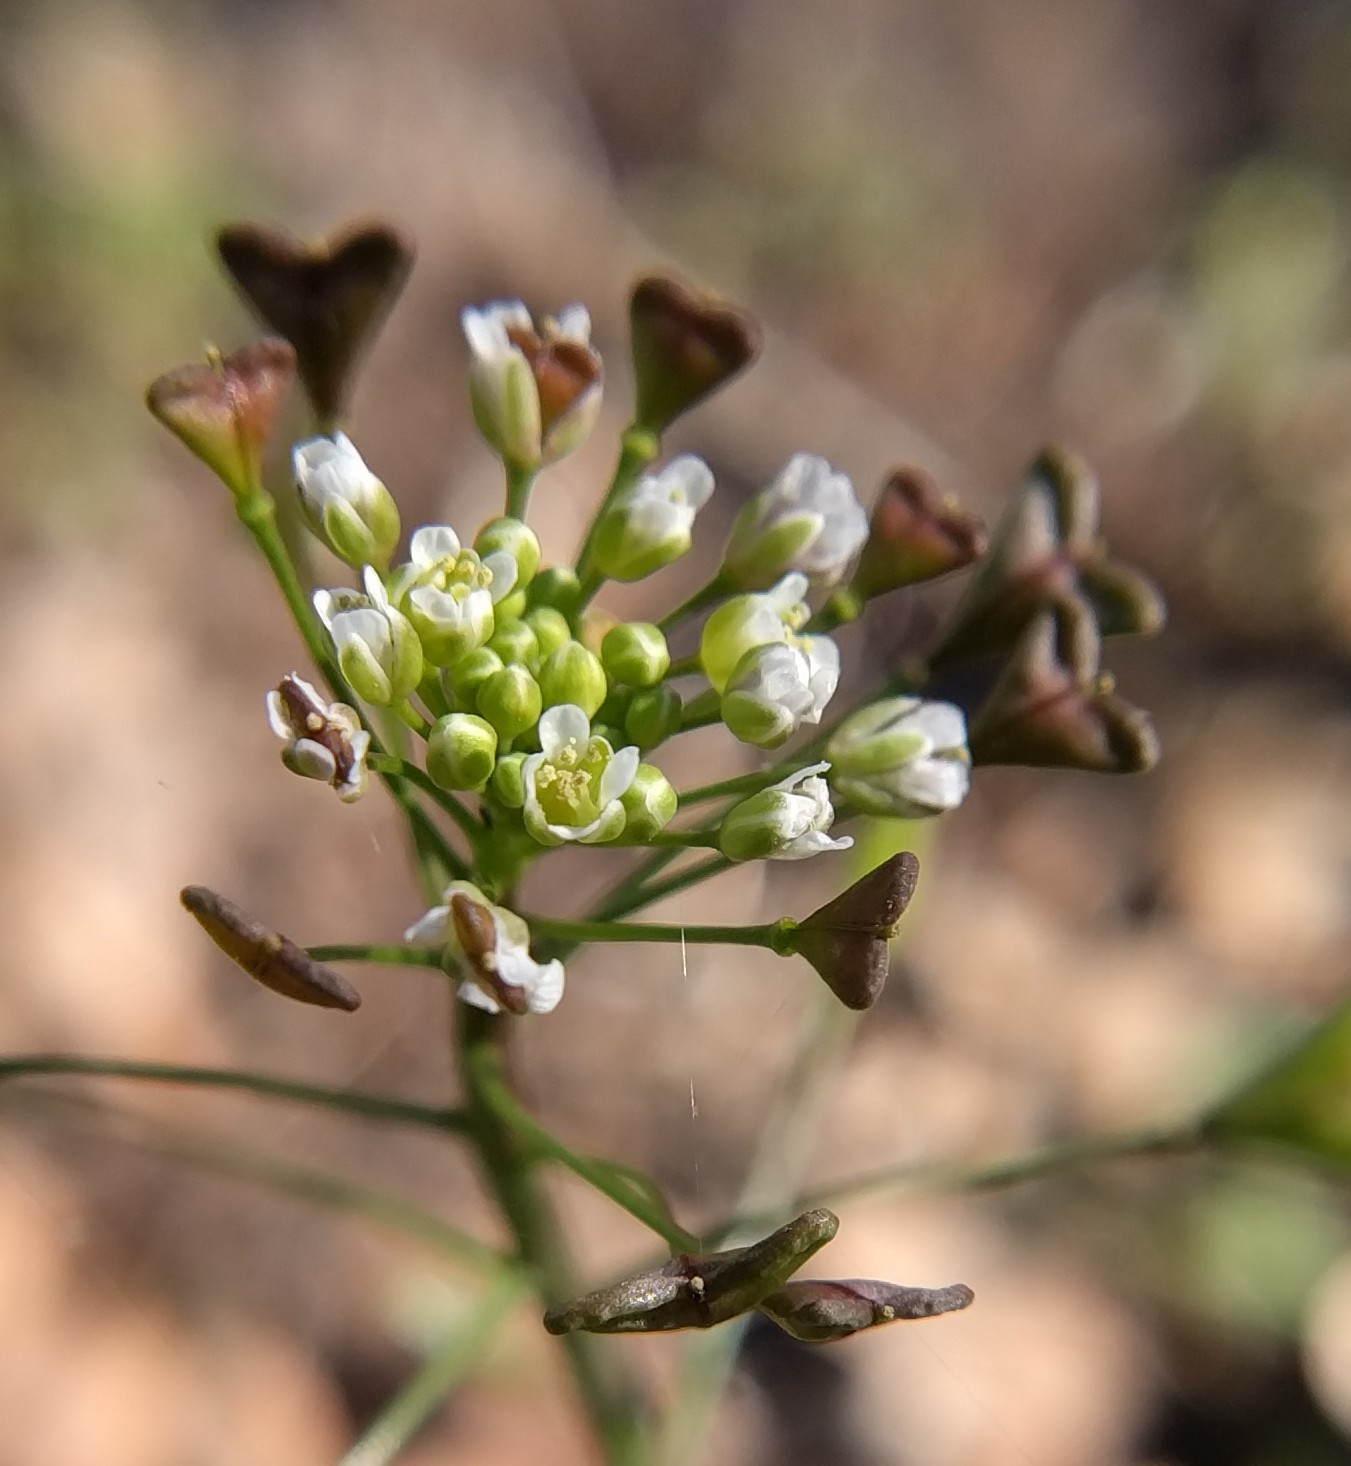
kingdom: Plantae
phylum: Tracheophyta
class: Magnoliopsida
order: Brassicales
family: Brassicaceae
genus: Capsella
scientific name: Capsella bursa-pastoris
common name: Shepherd's purse
